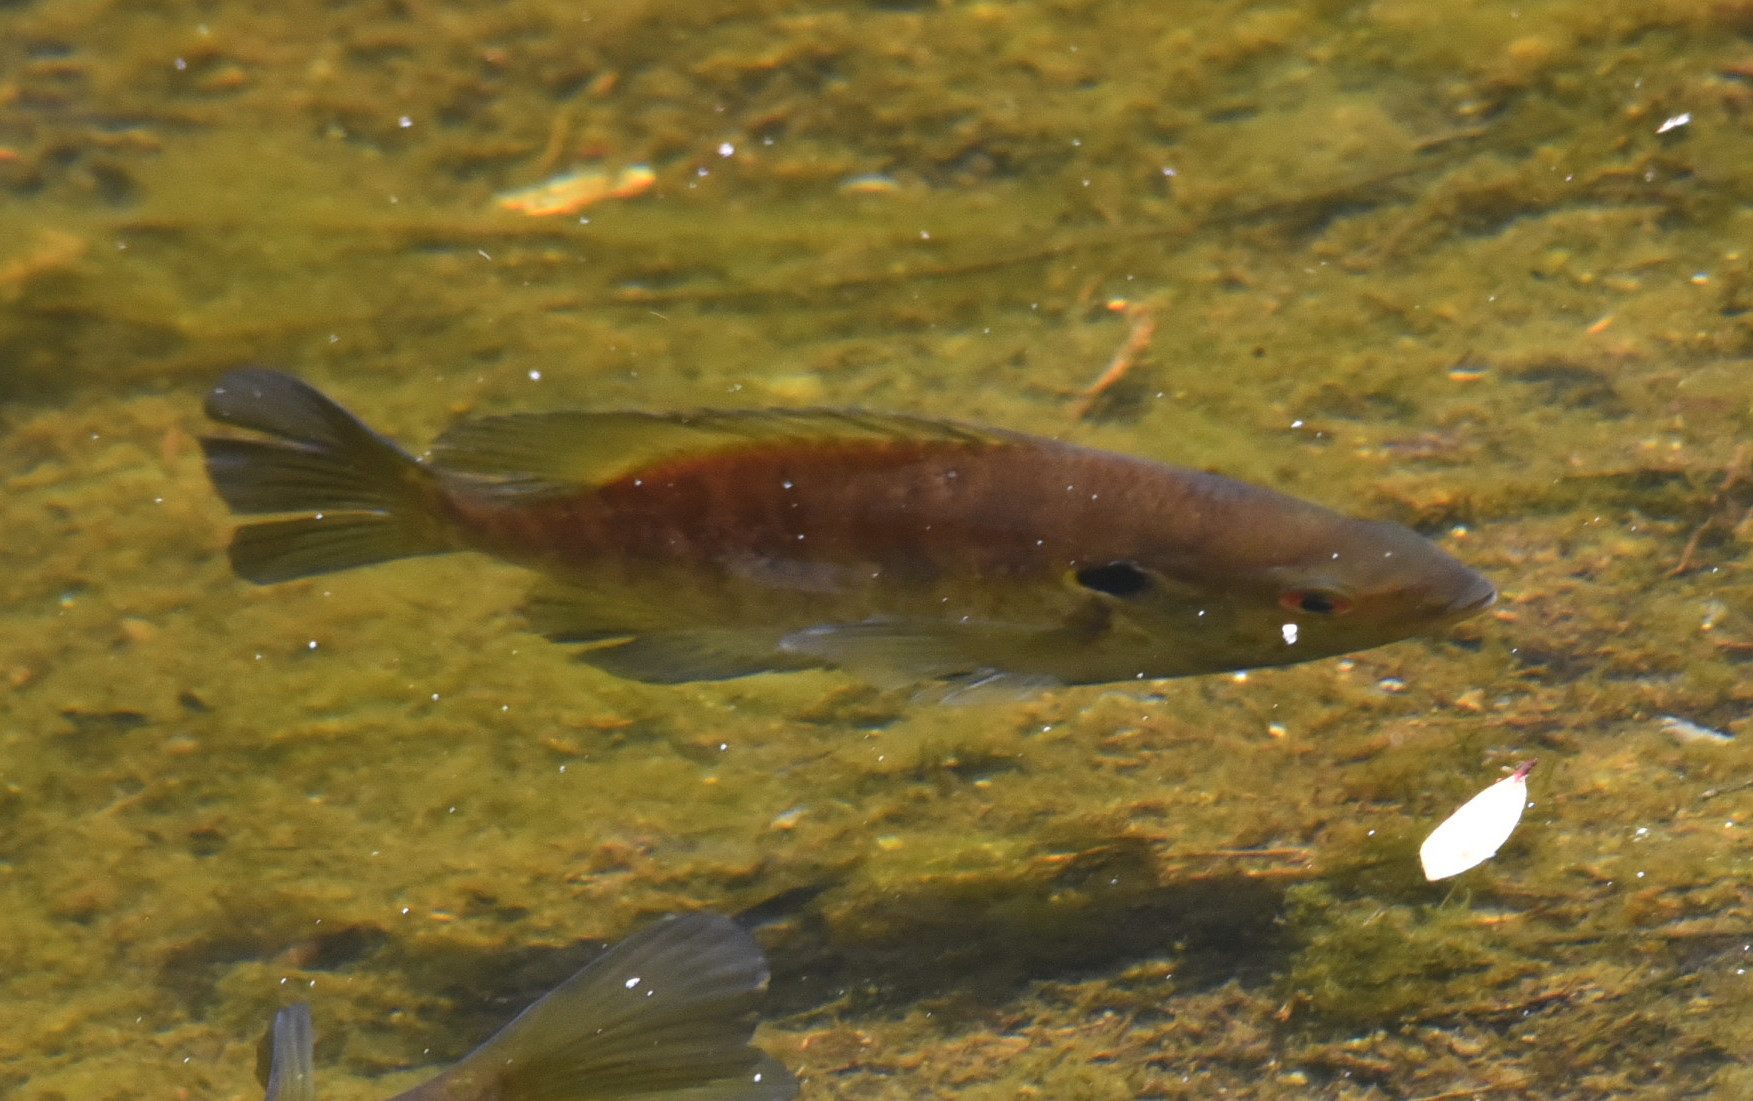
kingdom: Animalia
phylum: Chordata
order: Perciformes
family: Centrarchidae
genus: Lepomis
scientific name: Lepomis microlophus
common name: Redear sunfish
